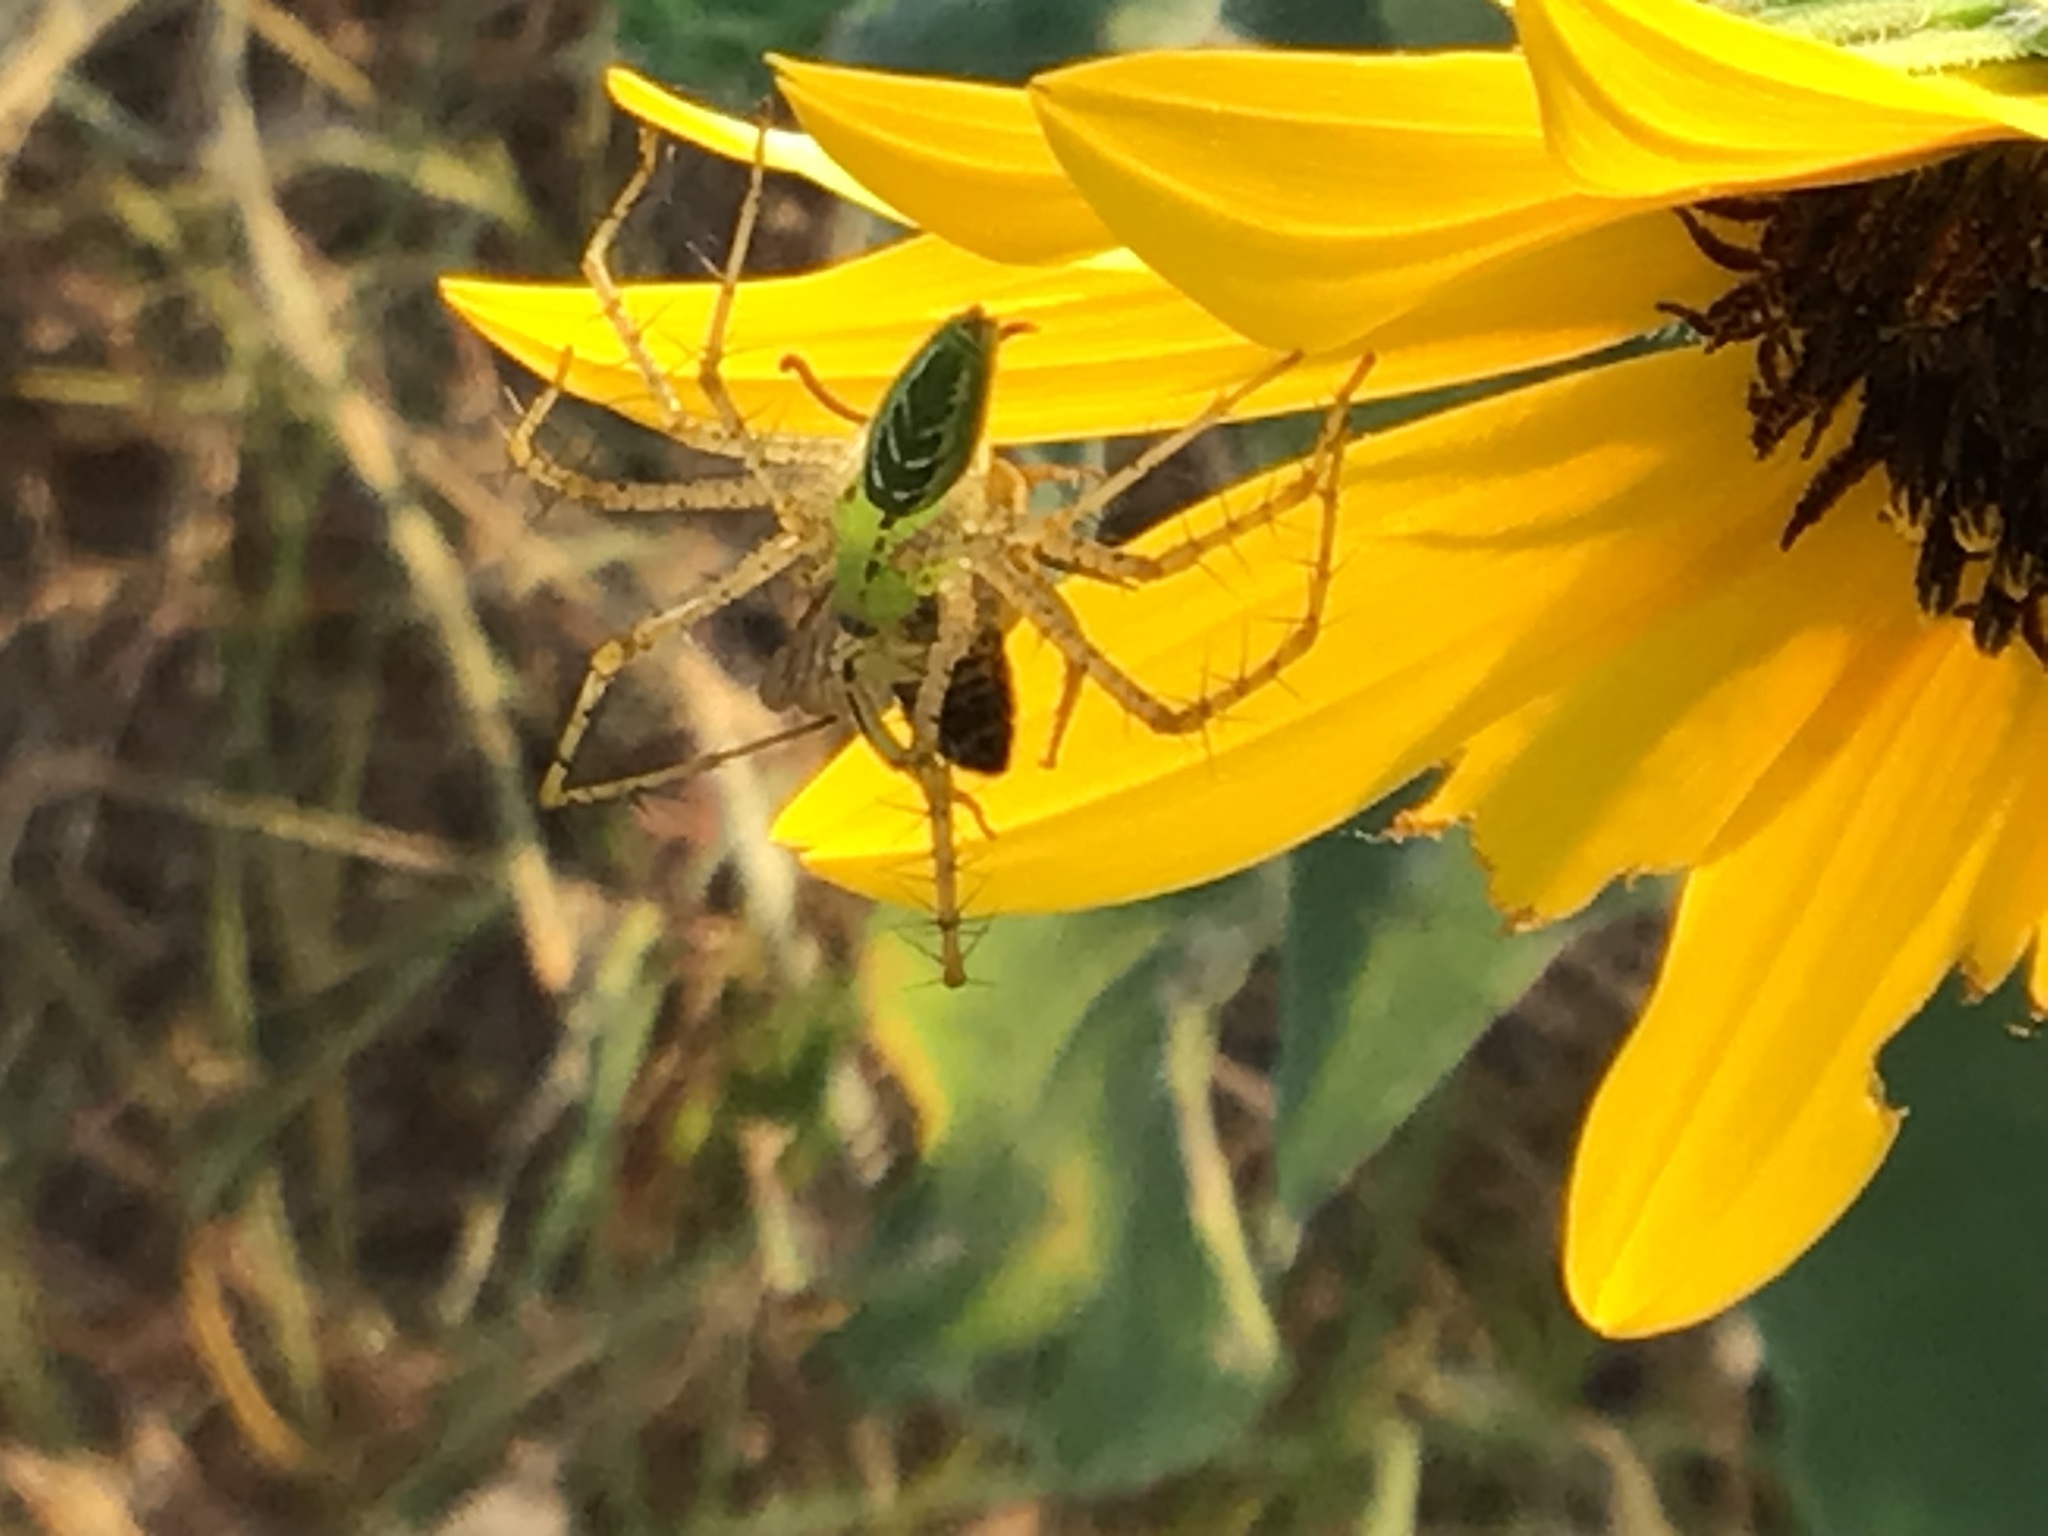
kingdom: Animalia
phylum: Arthropoda
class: Insecta
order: Hymenoptera
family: Apidae
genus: Apis
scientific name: Apis mellifera
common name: Honey bee
